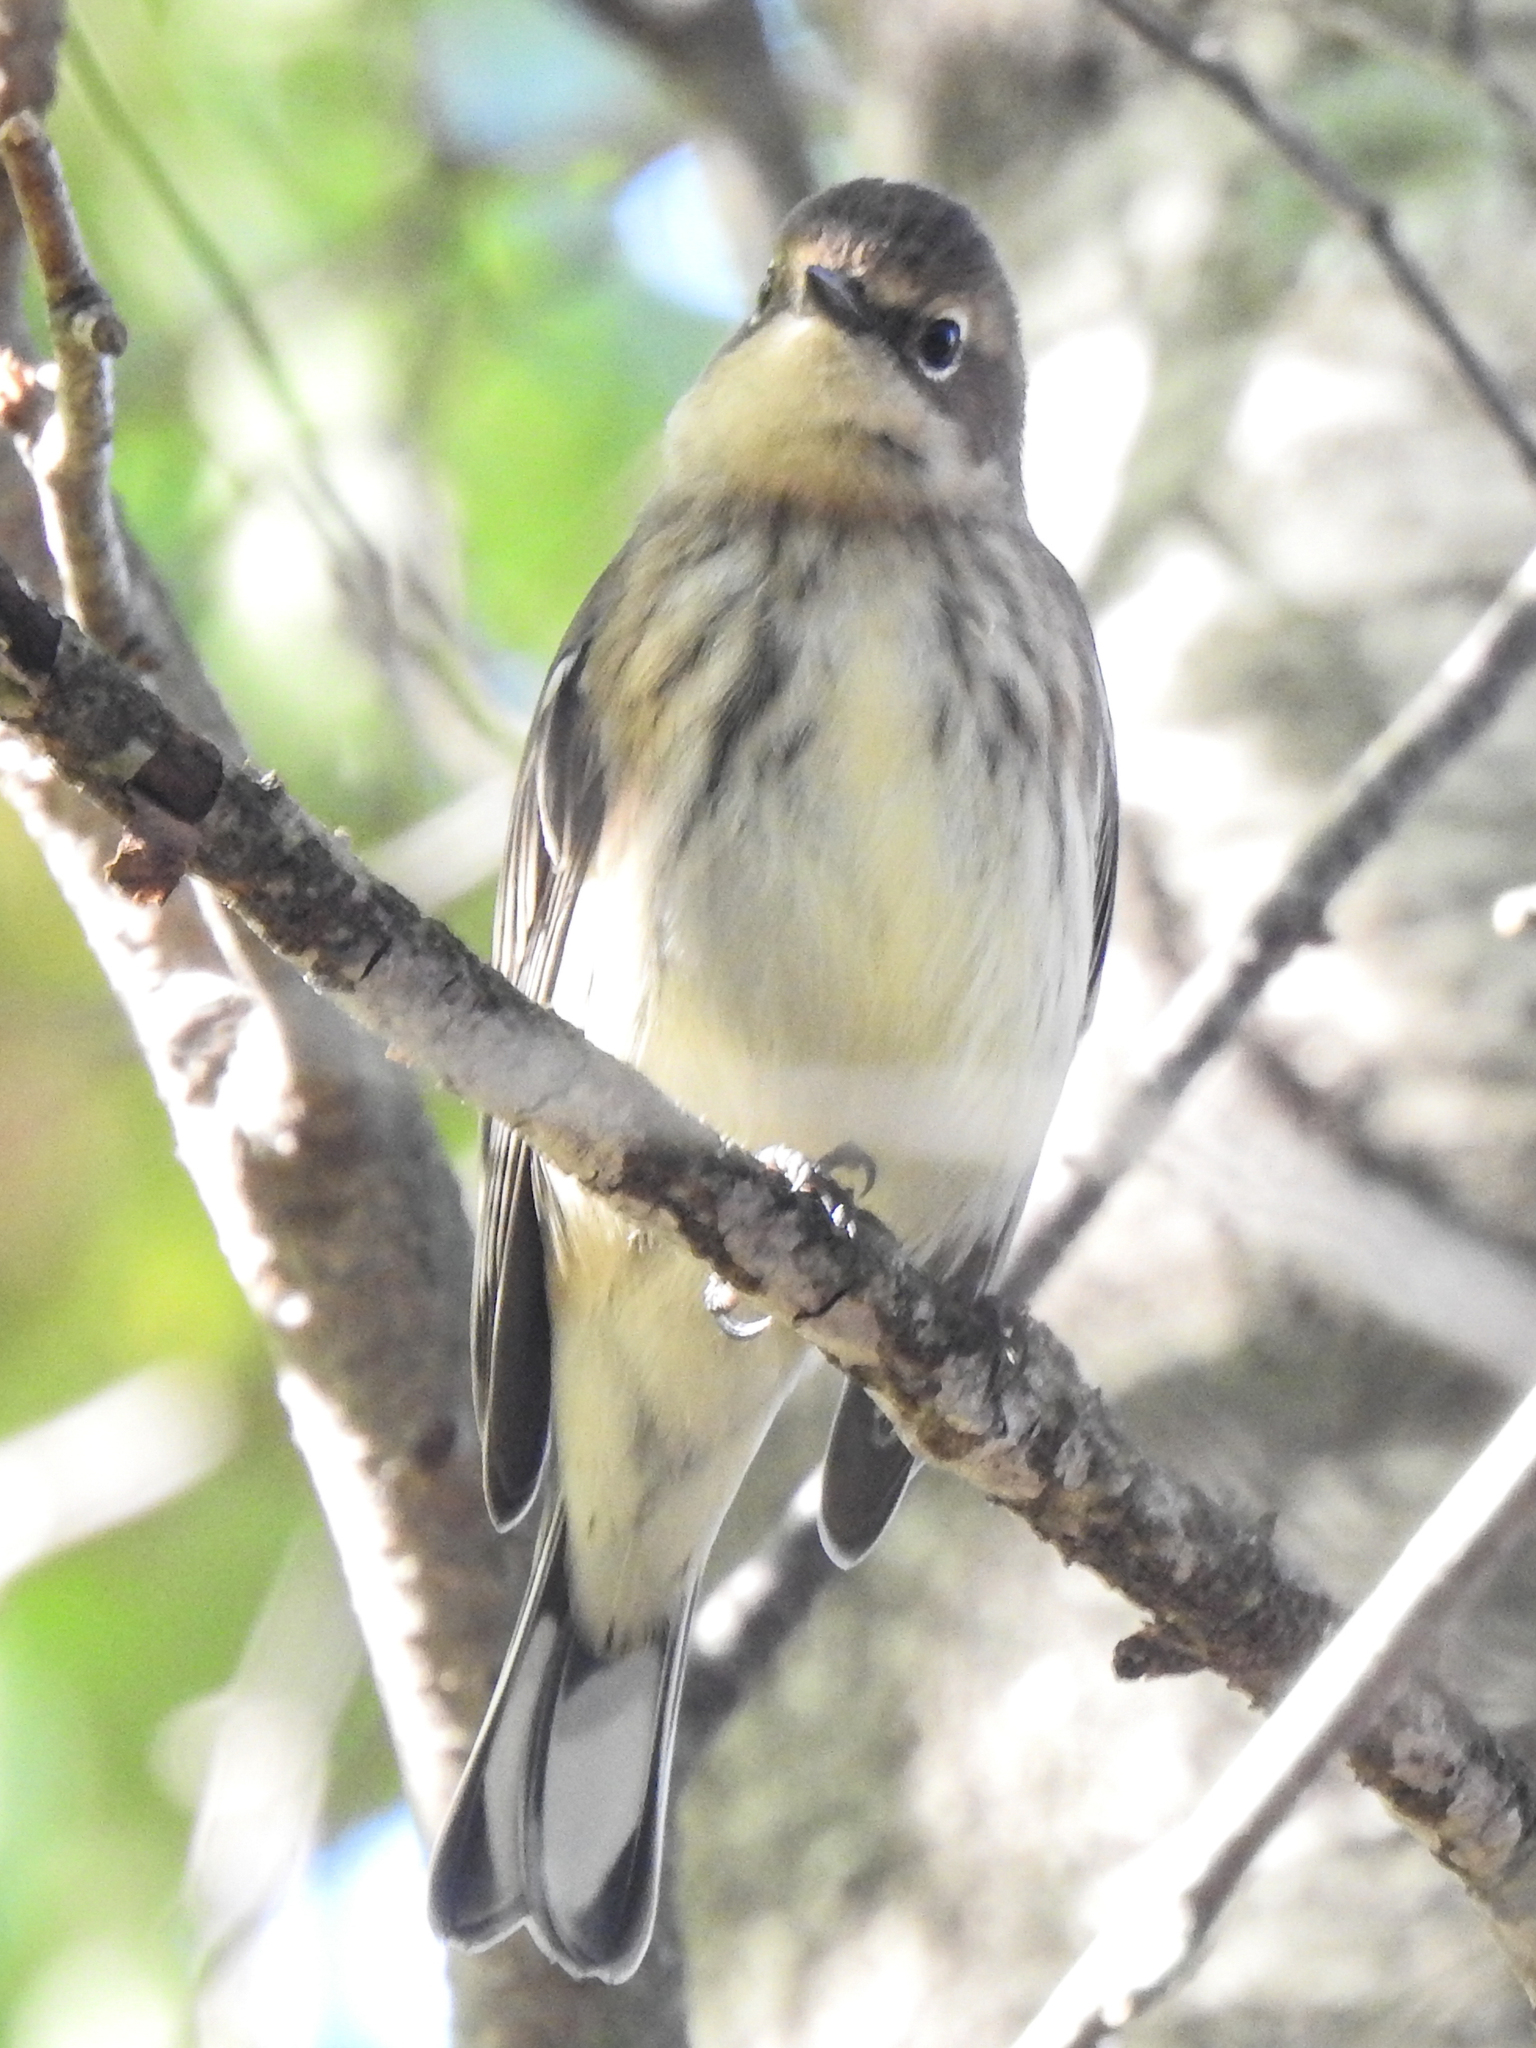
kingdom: Animalia
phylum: Chordata
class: Aves
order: Passeriformes
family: Parulidae
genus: Setophaga
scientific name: Setophaga coronata
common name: Myrtle warbler
